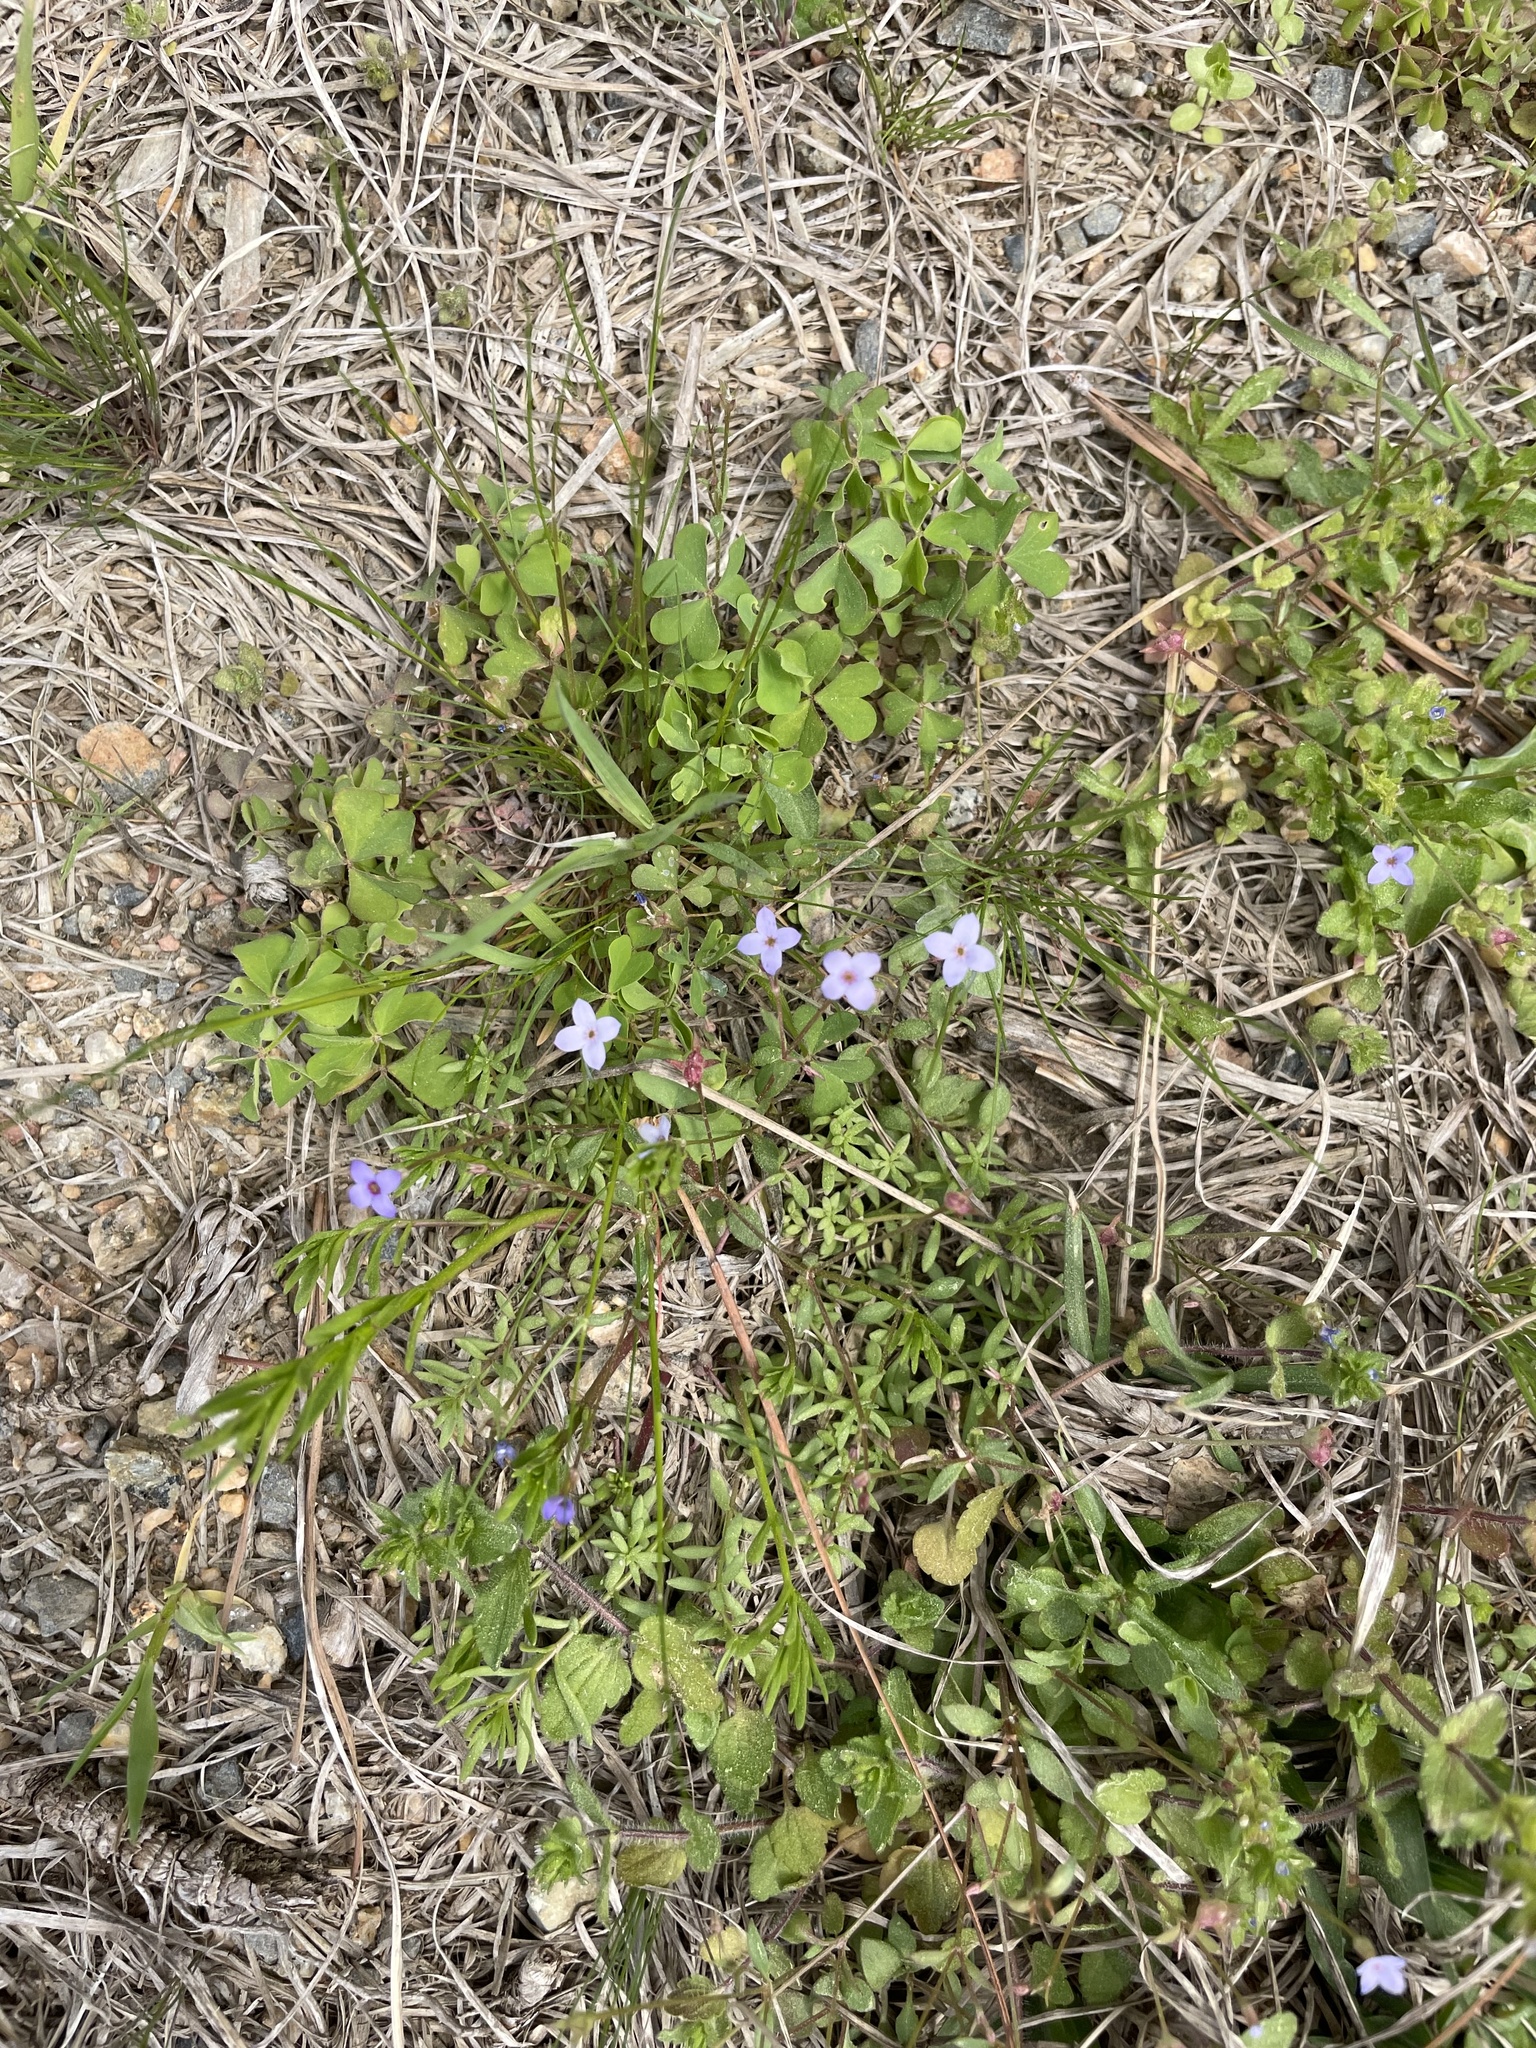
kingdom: Plantae
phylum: Tracheophyta
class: Magnoliopsida
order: Gentianales
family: Rubiaceae
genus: Houstonia
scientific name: Houstonia pusilla
